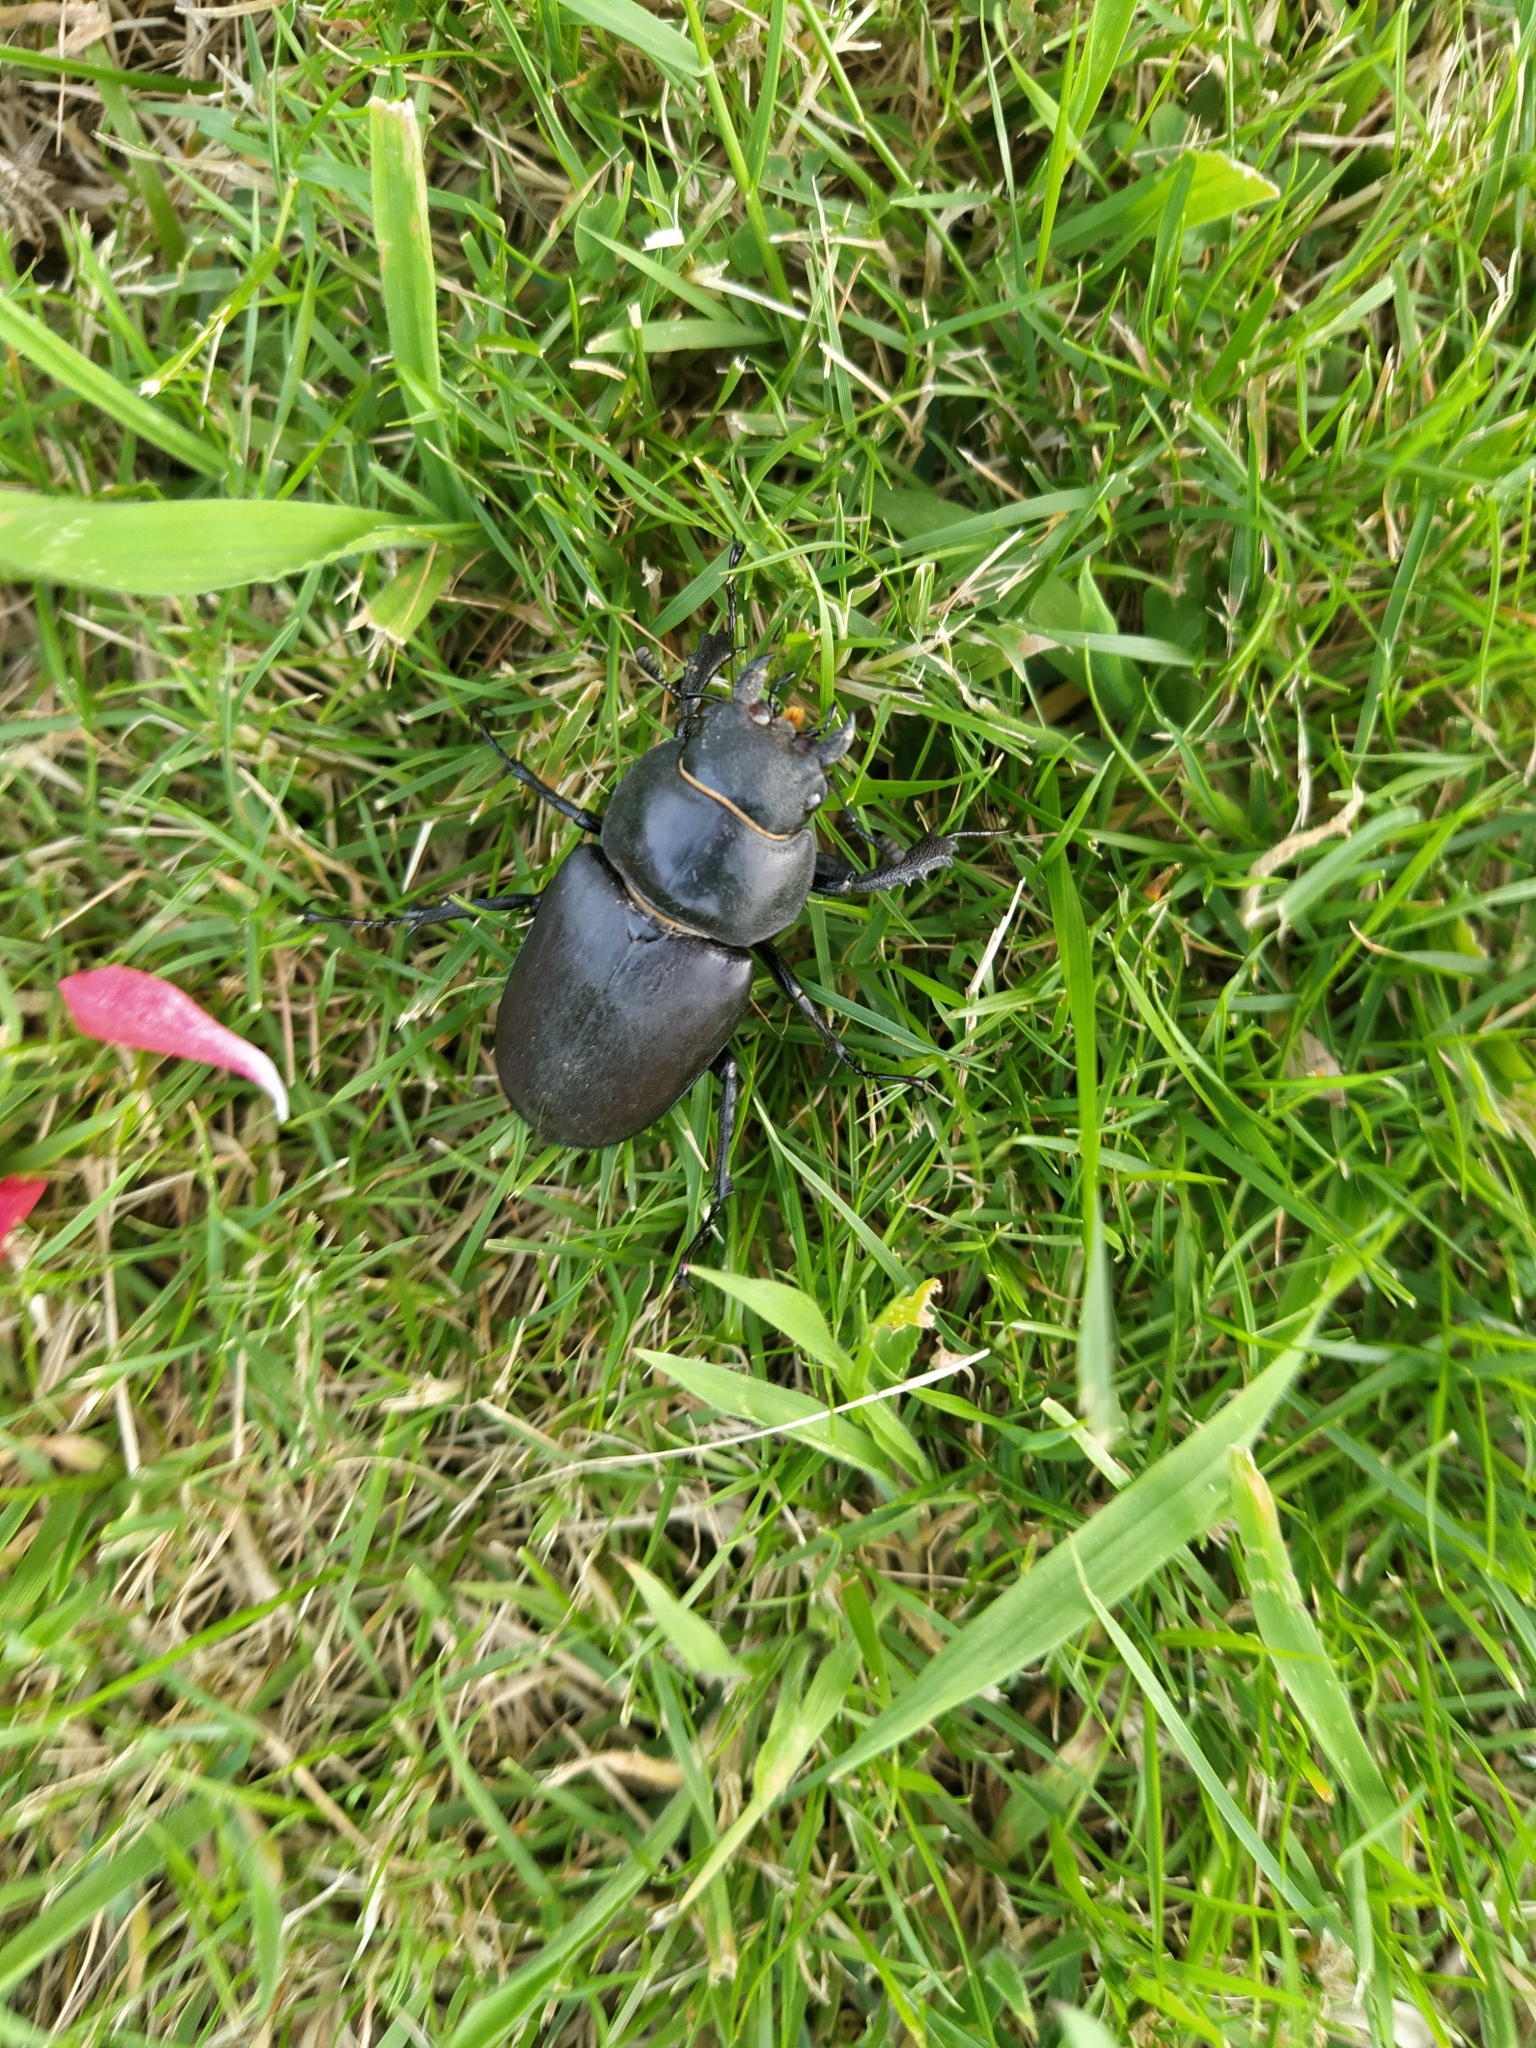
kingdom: Animalia
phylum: Arthropoda
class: Insecta
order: Coleoptera
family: Lucanidae
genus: Lucanus
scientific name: Lucanus cervus
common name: Stag beetle
